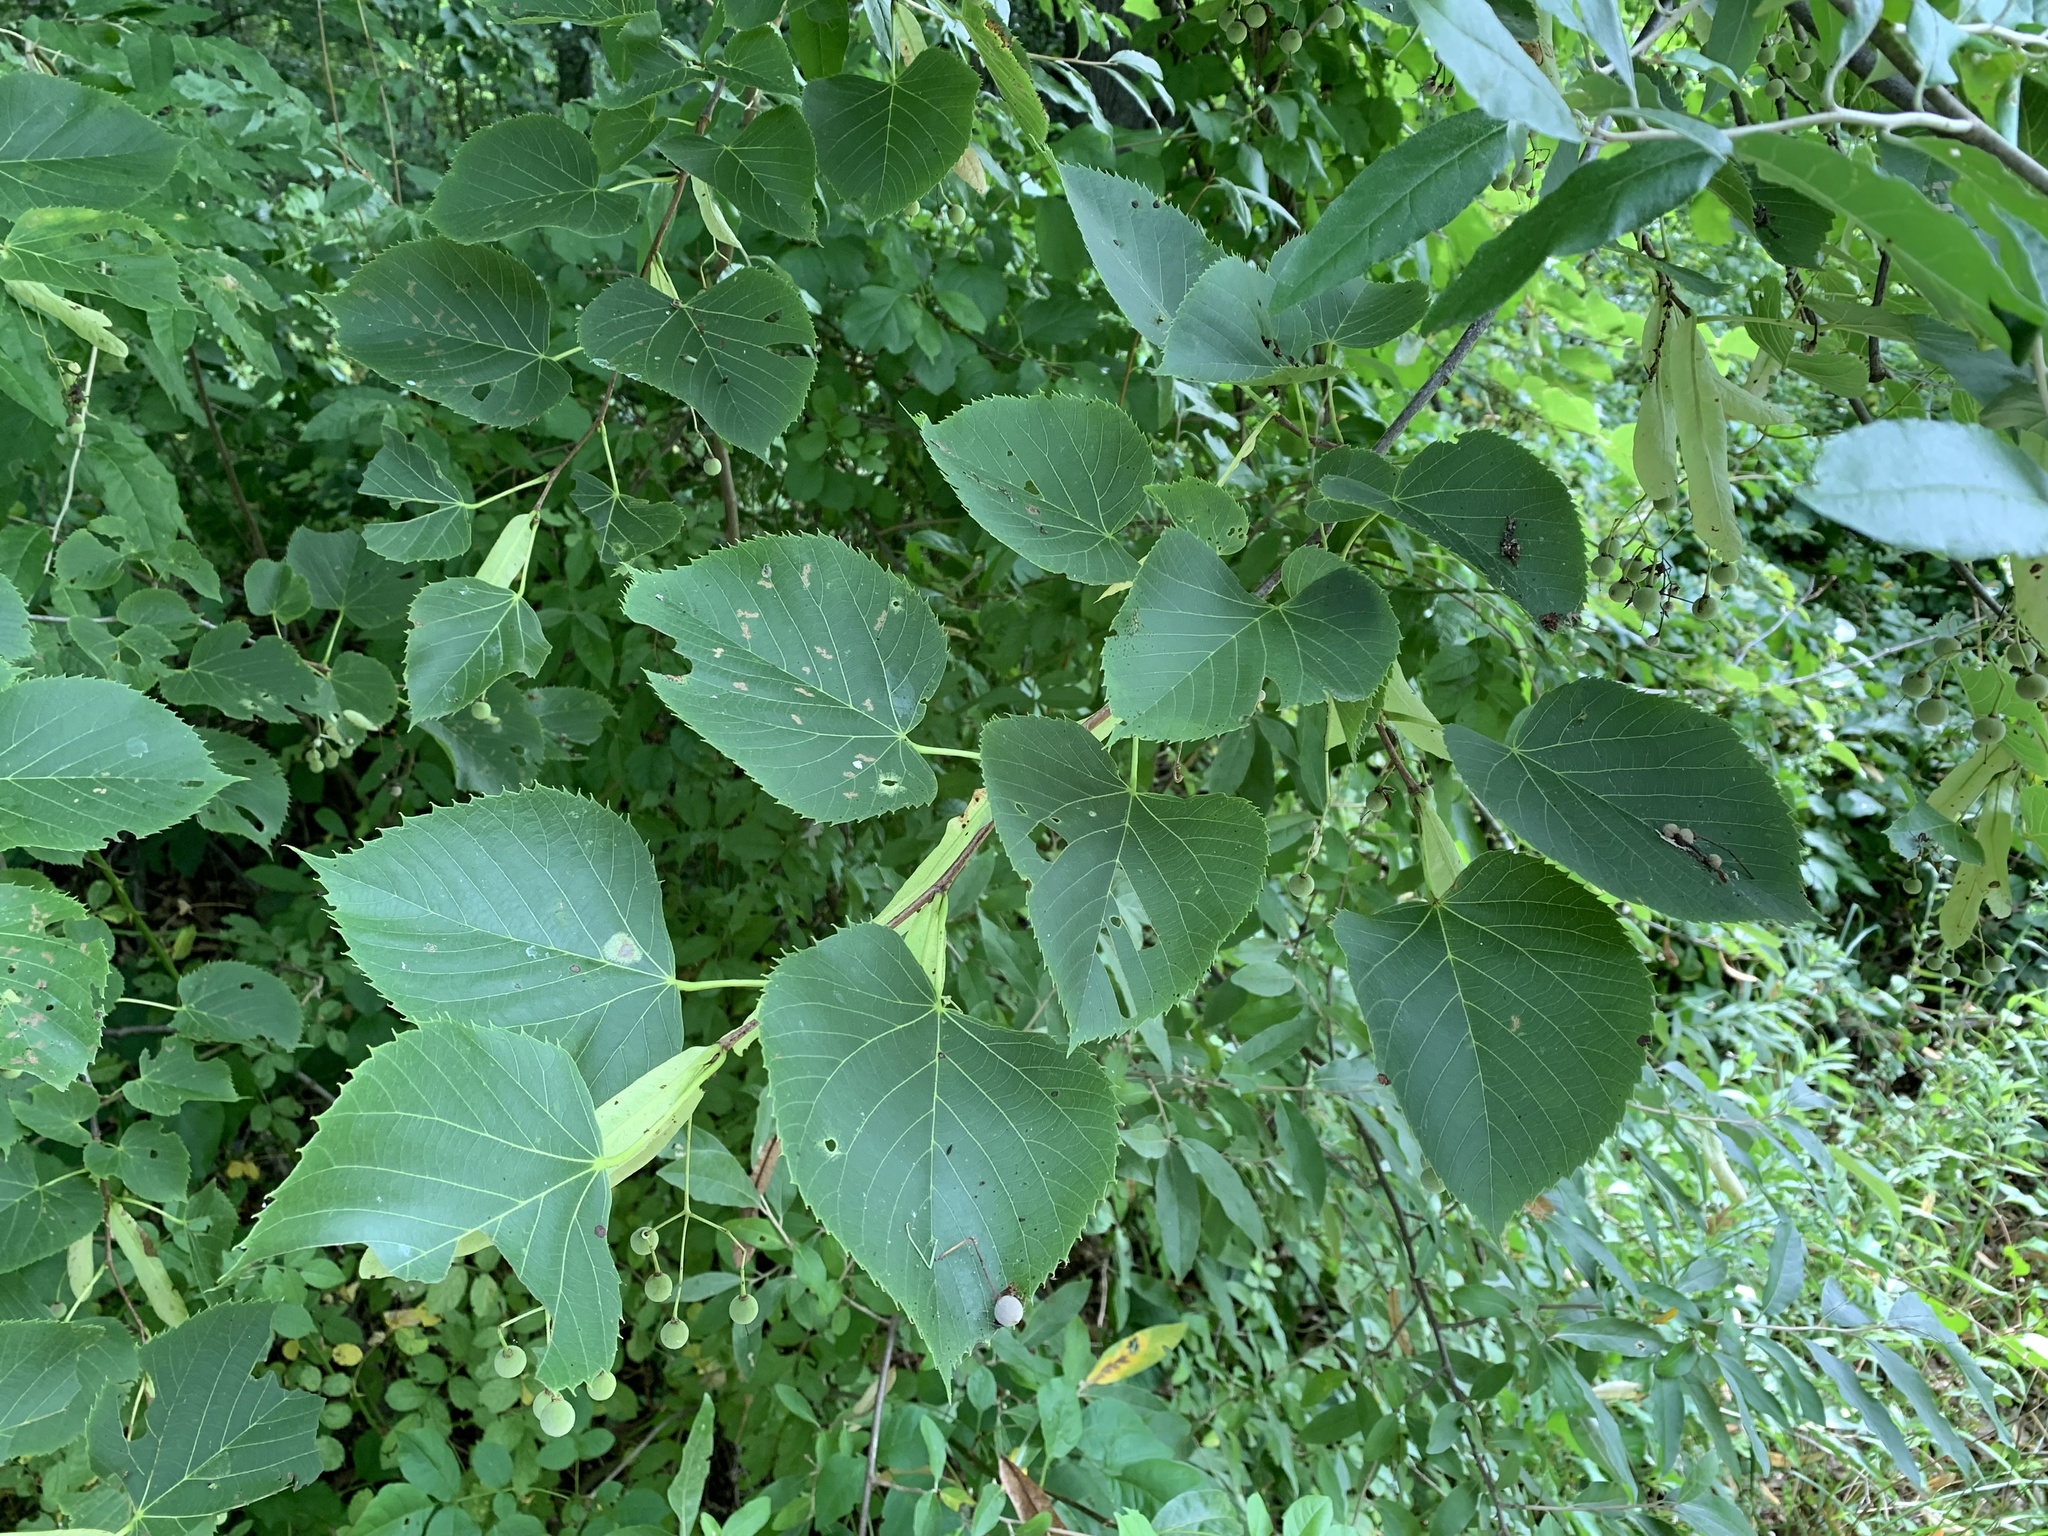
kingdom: Plantae
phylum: Tracheophyta
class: Magnoliopsida
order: Malvales
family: Malvaceae
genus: Tilia
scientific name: Tilia americana
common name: Basswood
